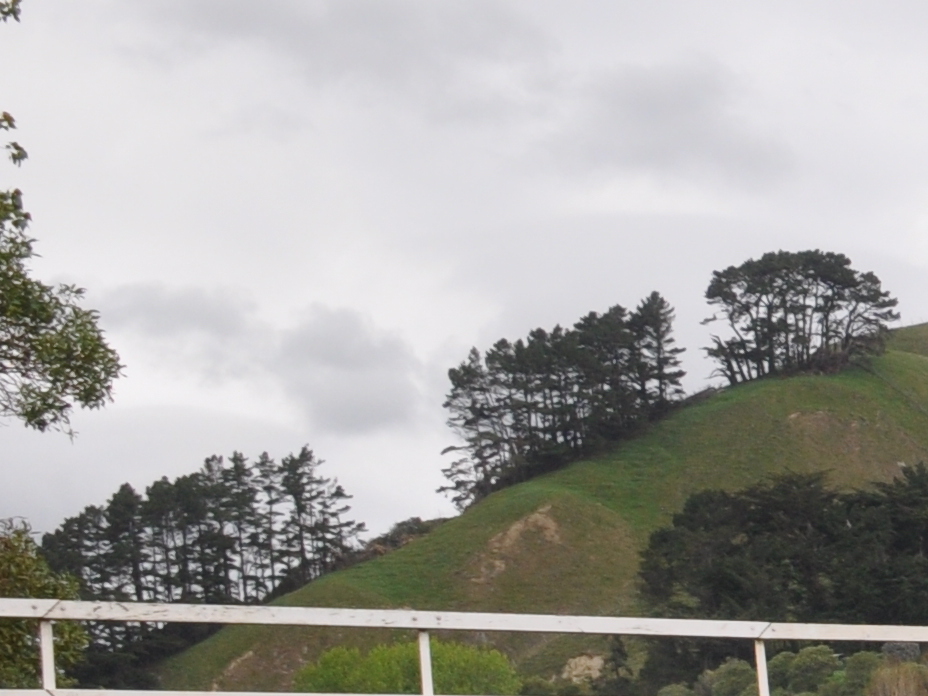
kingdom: Plantae
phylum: Tracheophyta
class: Pinopsida
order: Pinales
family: Pinaceae
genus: Pinus
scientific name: Pinus radiata
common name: Monterey pine
